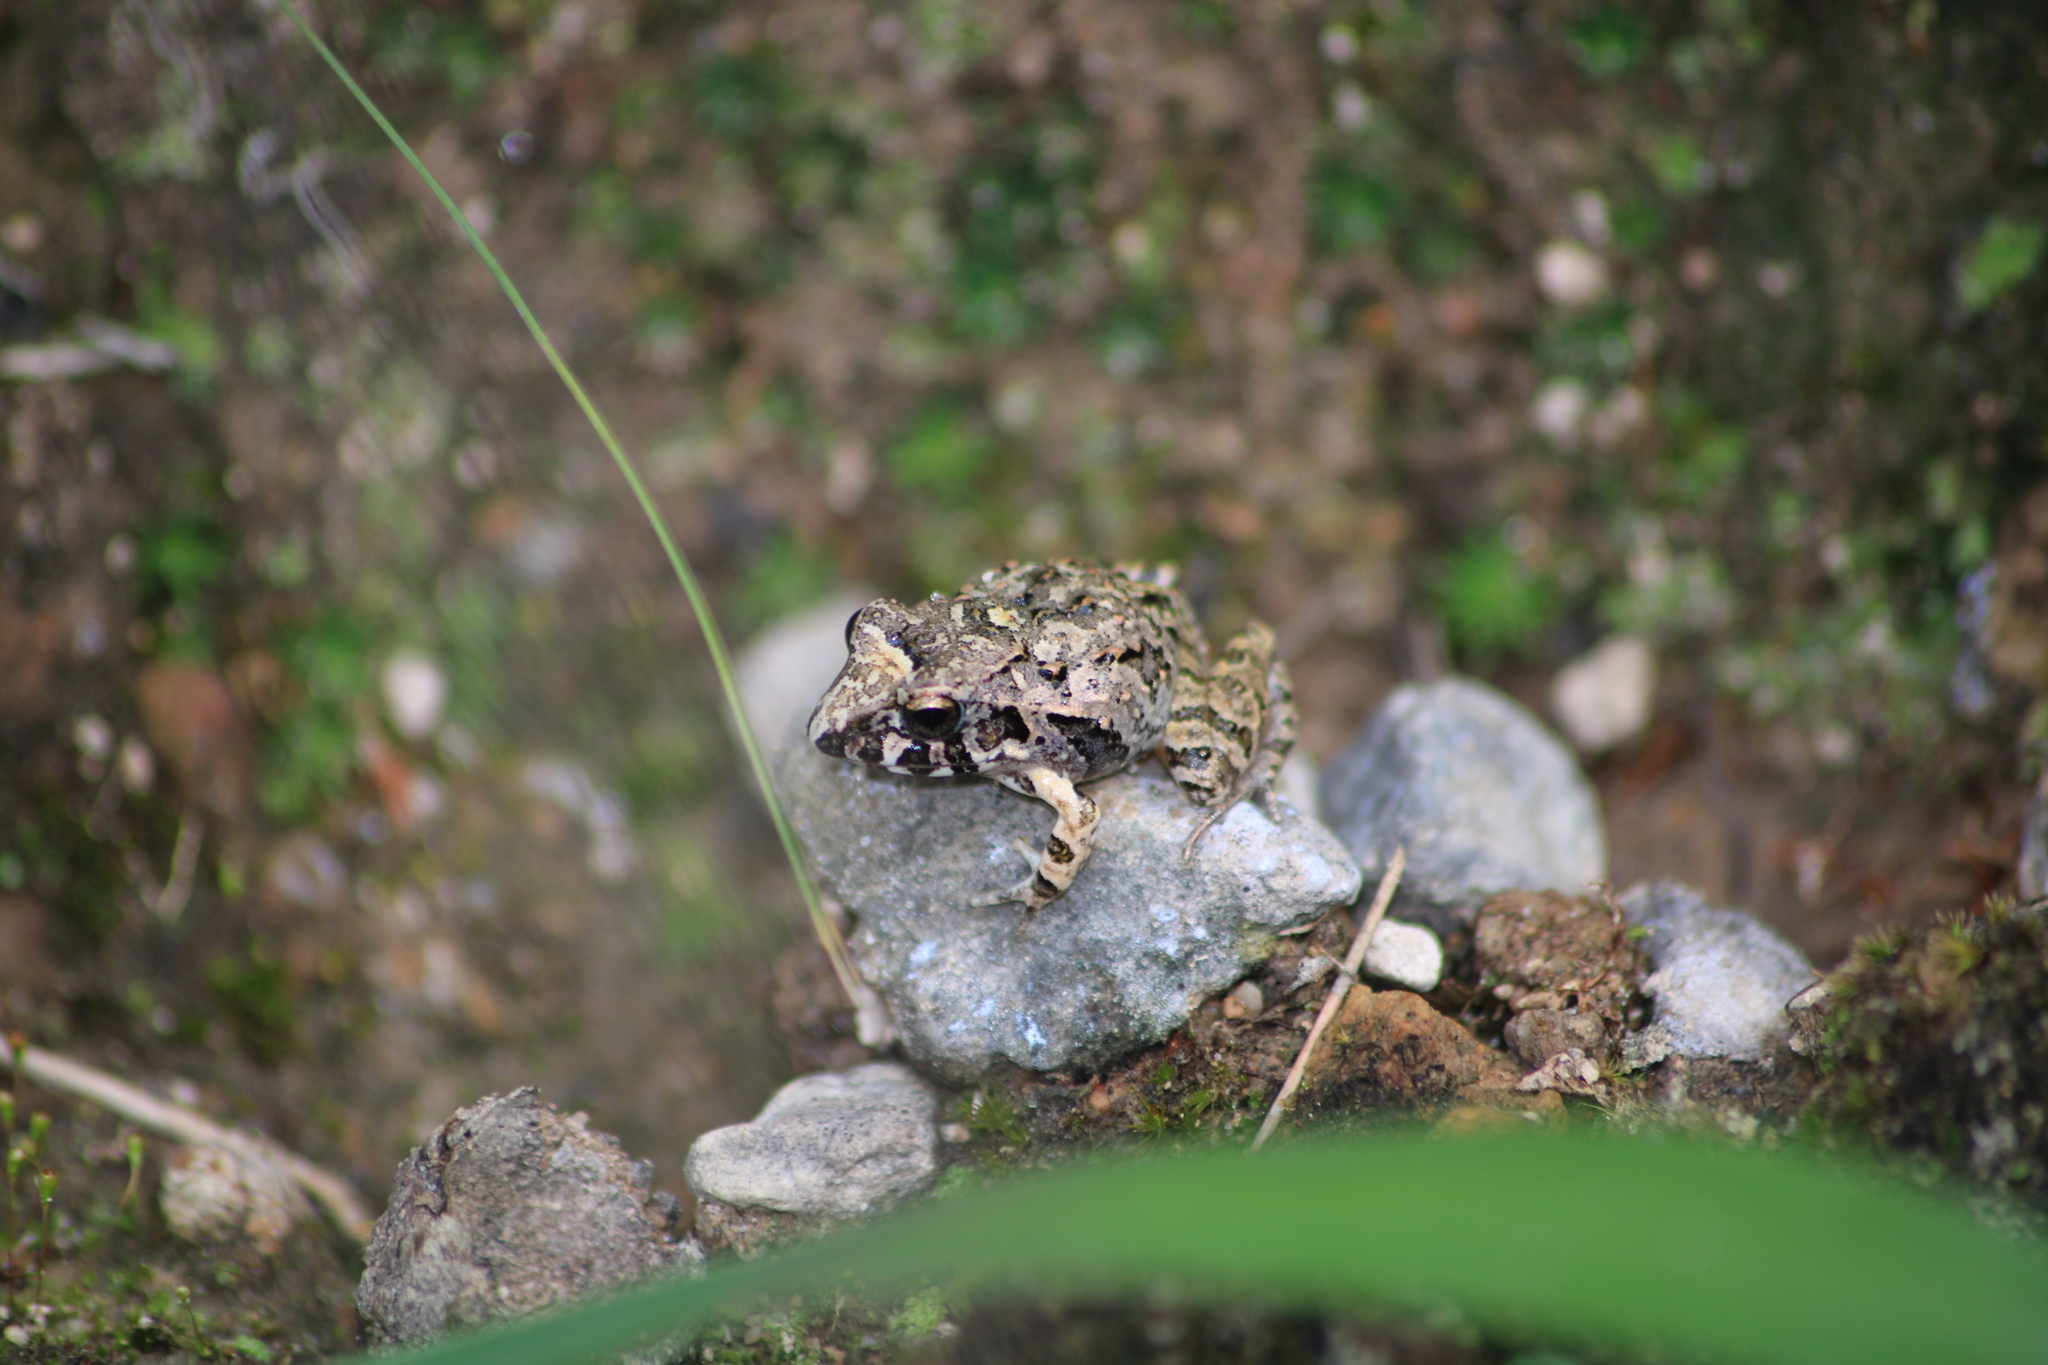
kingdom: Animalia
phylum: Chordata
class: Amphibia
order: Anura
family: Craugastoridae
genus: Craugastor
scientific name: Craugastor occidentalis
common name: Taylor's barking frog
